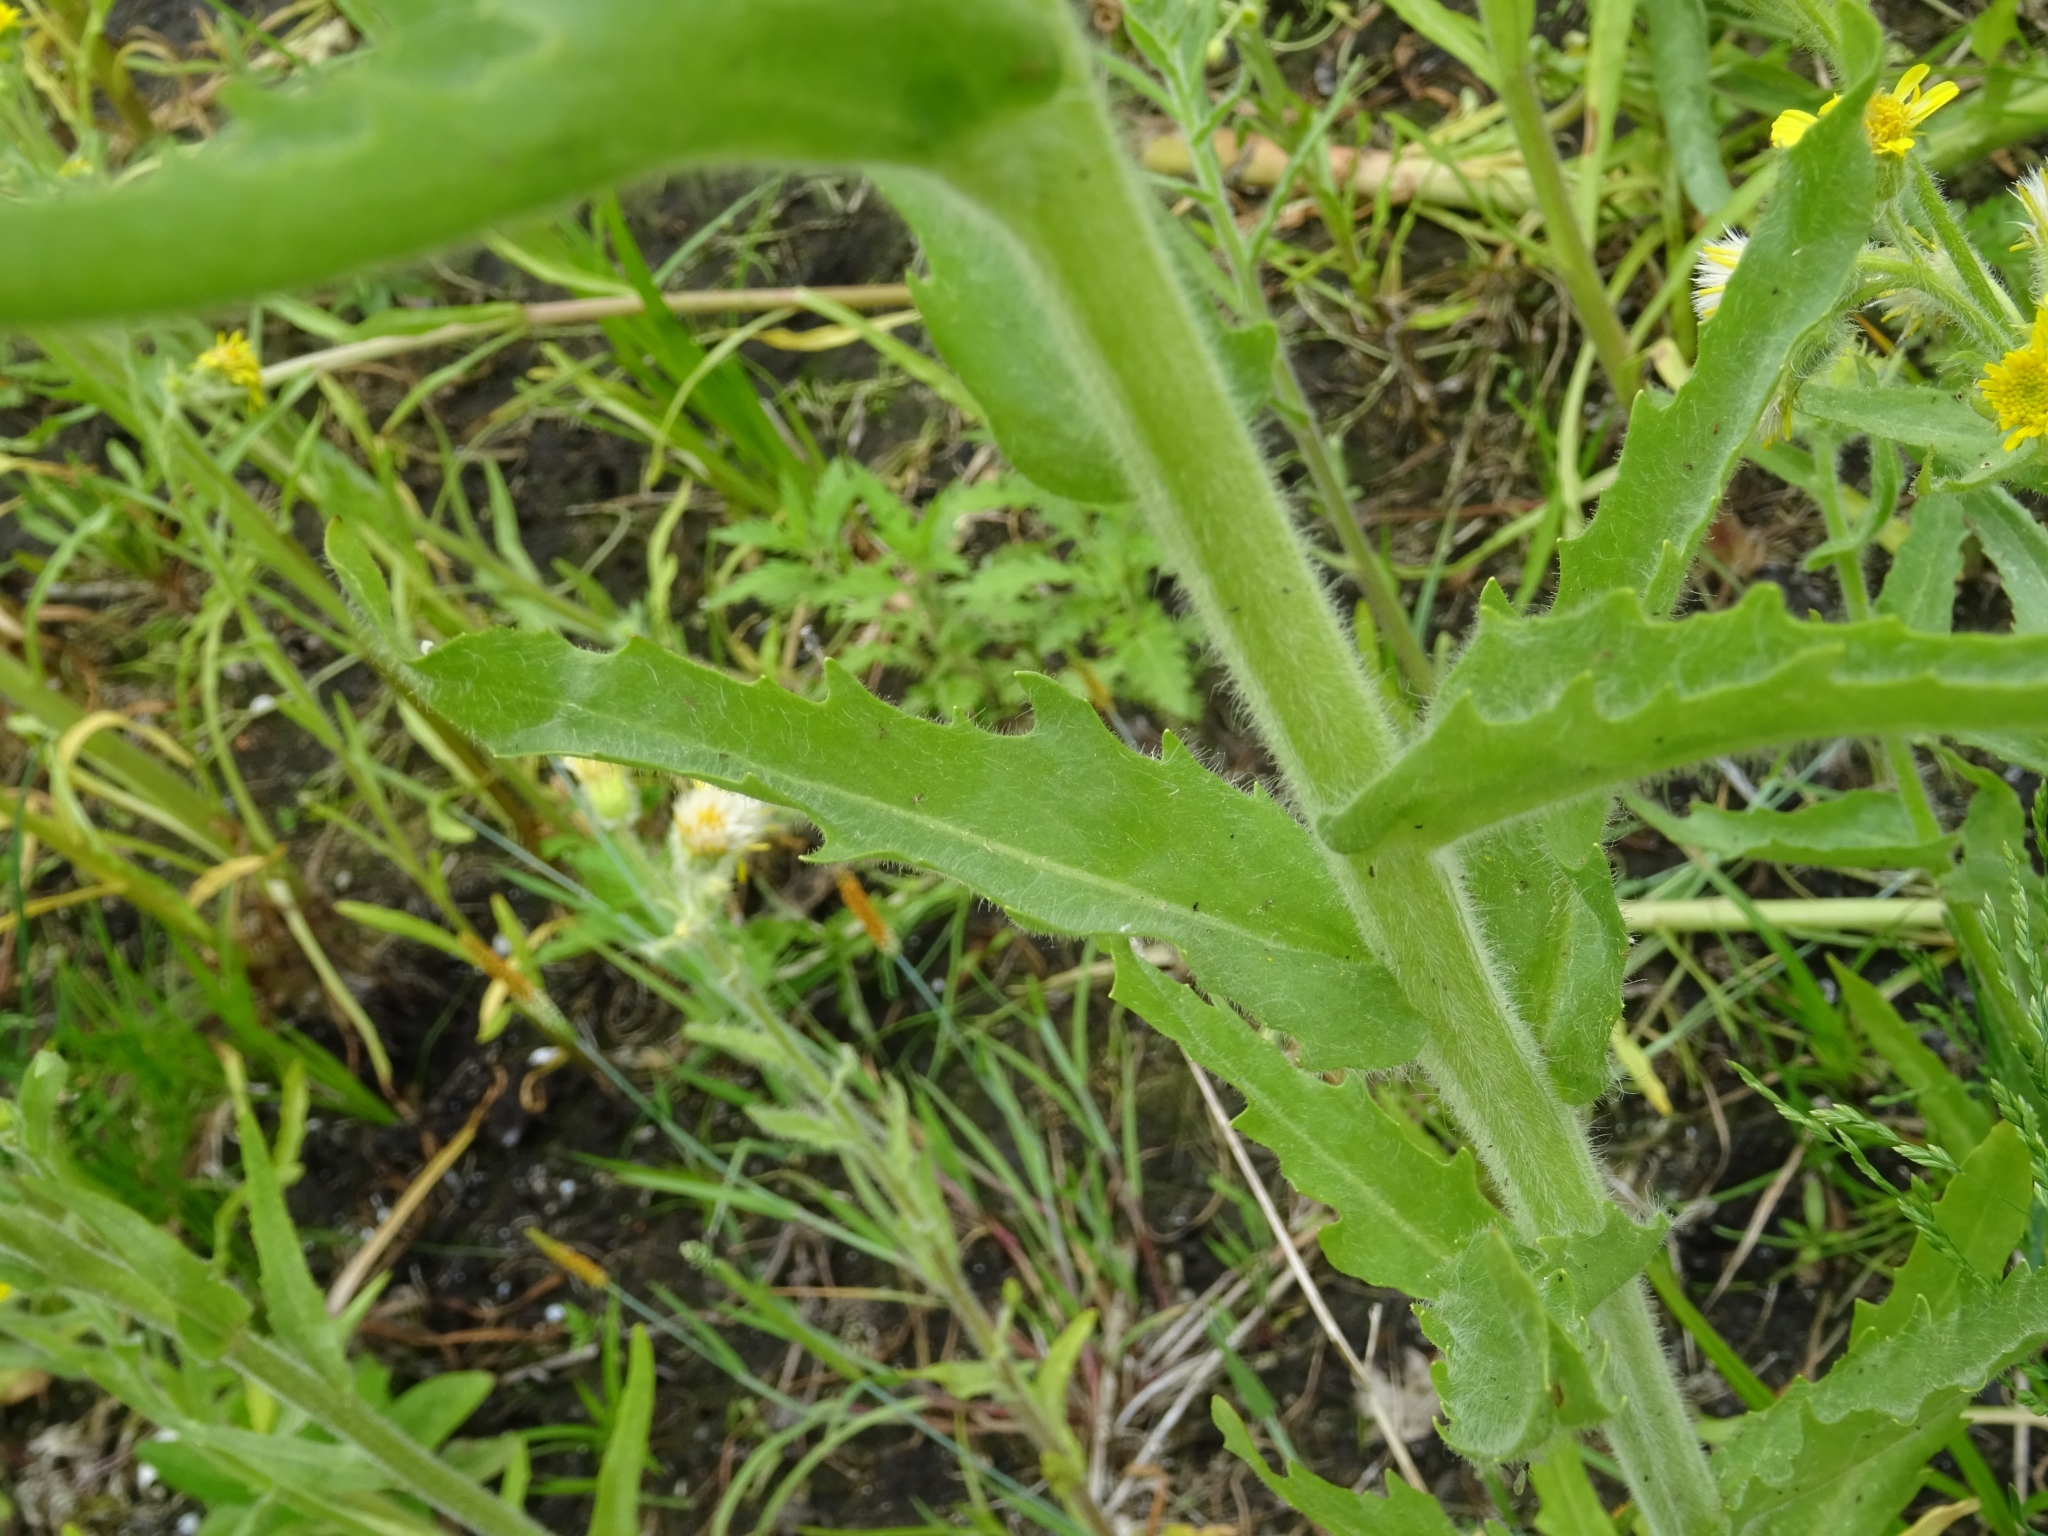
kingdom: Plantae
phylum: Tracheophyta
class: Magnoliopsida
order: Asterales
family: Asteraceae
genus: Tephroseris
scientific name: Tephroseris palustris
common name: Marsh fleawort
